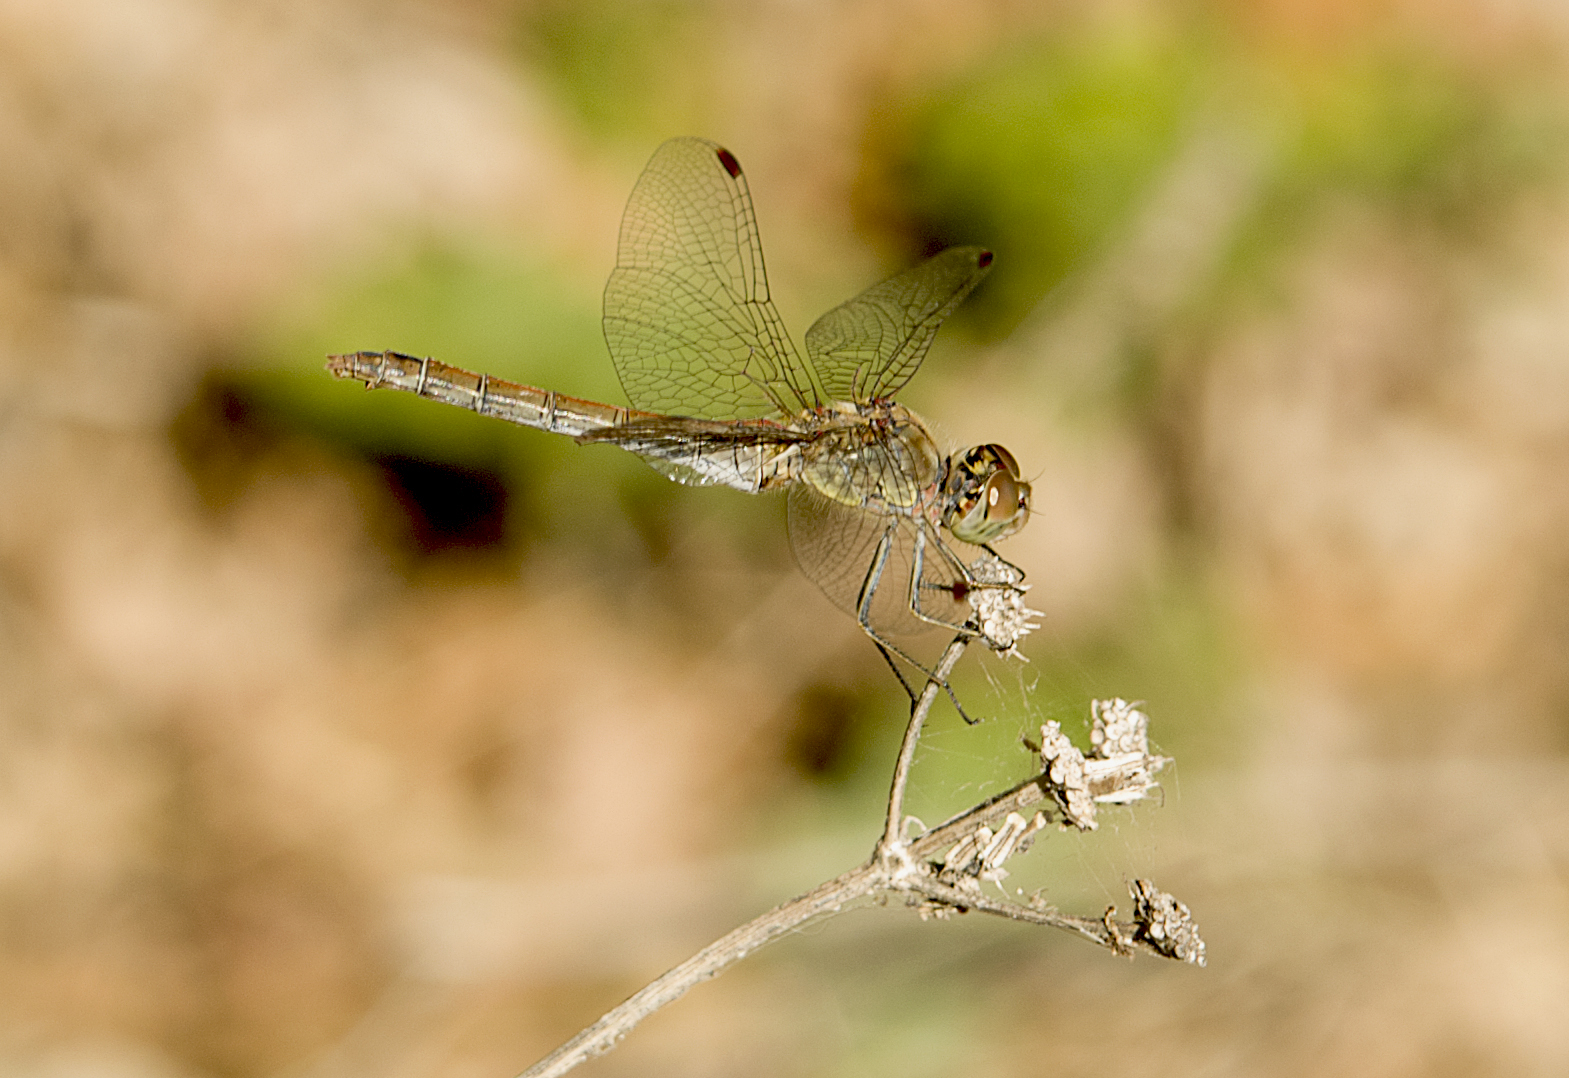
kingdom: Animalia
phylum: Arthropoda
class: Insecta
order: Odonata
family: Libellulidae
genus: Sympetrum
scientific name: Sympetrum striolatum
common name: Common darter
